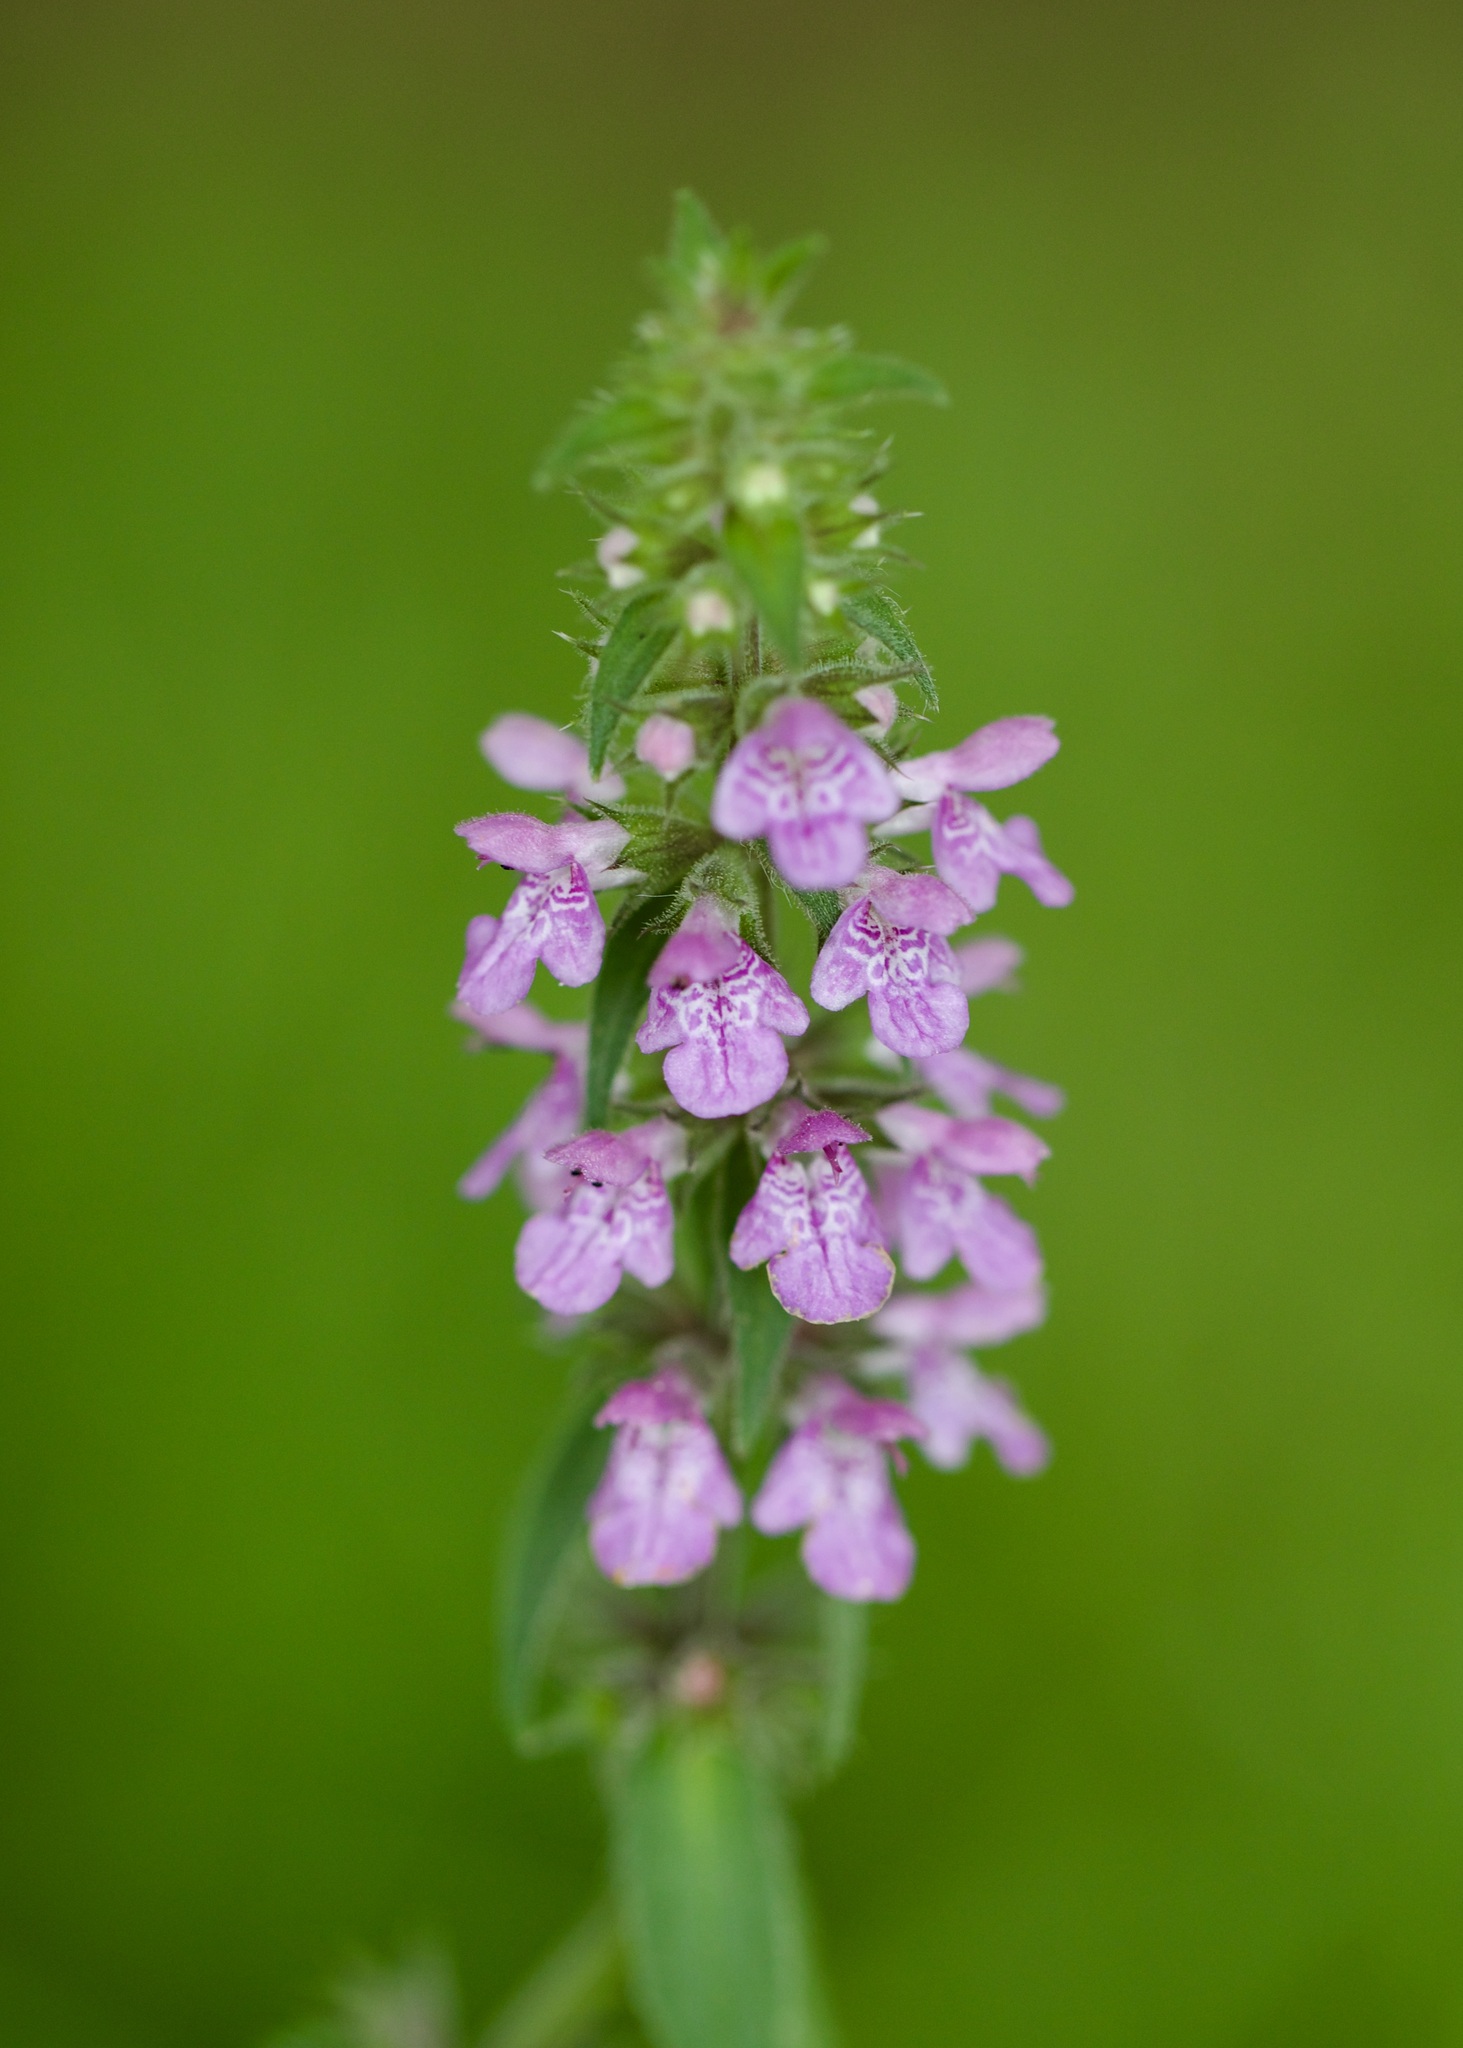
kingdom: Plantae
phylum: Tracheophyta
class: Magnoliopsida
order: Lamiales
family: Lamiaceae
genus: Stachys
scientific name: Stachys palustris
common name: Marsh woundwort
